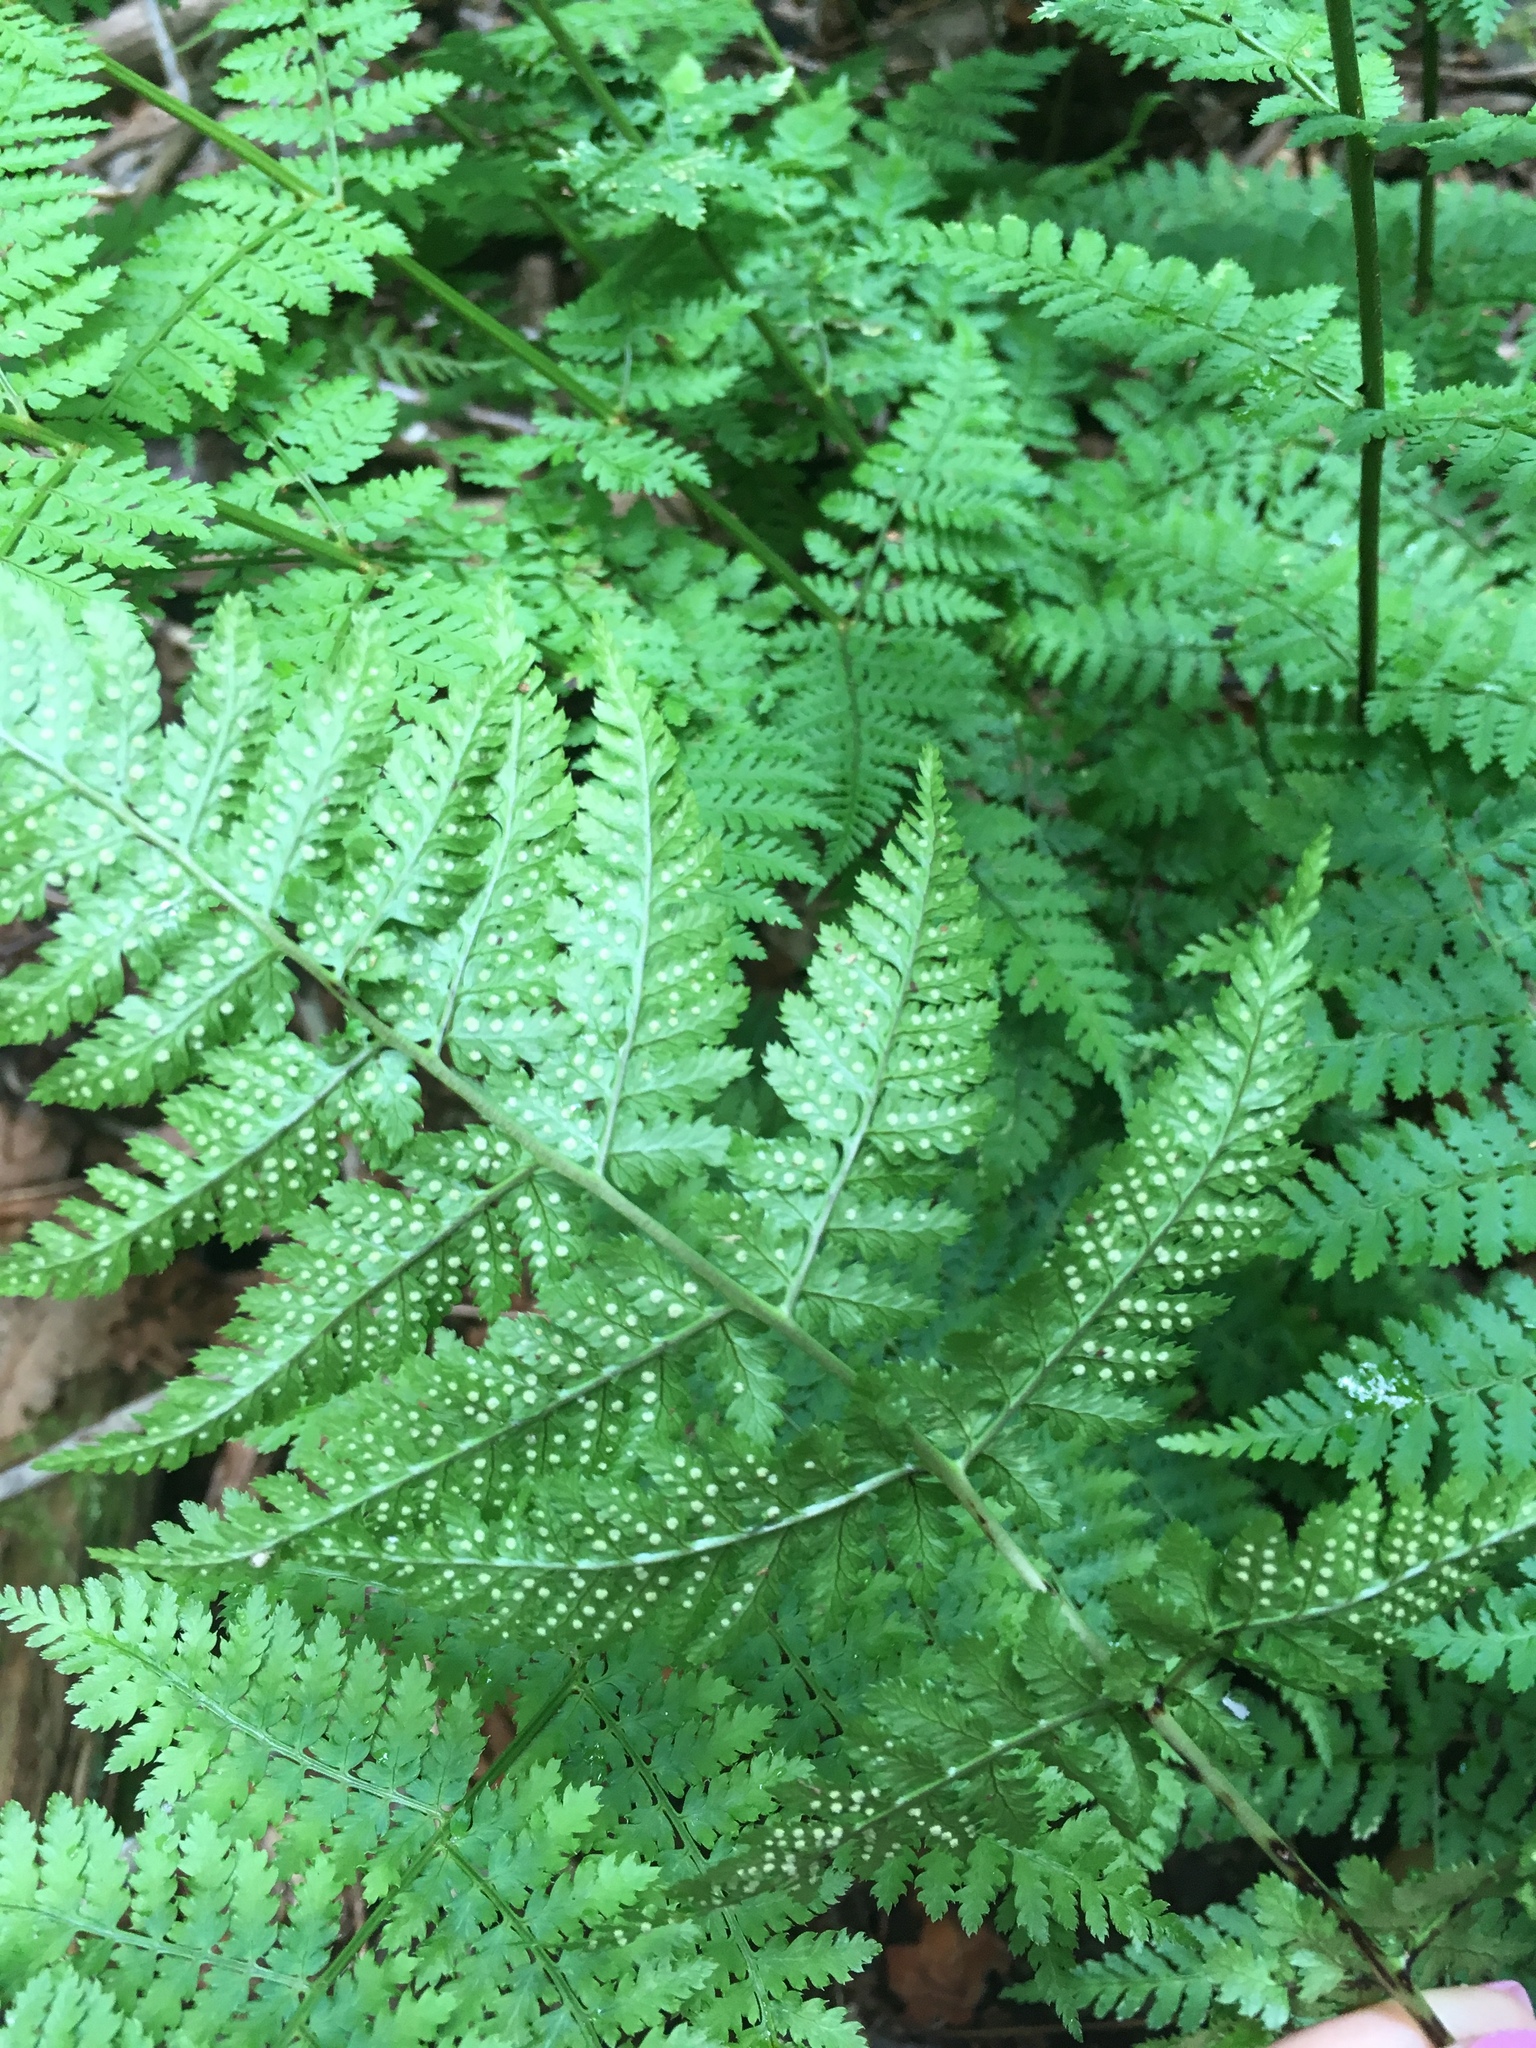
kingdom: Plantae
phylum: Tracheophyta
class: Polypodiopsida
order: Polypodiales
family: Dryopteridaceae
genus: Dryopteris
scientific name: Dryopteris intermedia
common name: Evergreen wood fern
